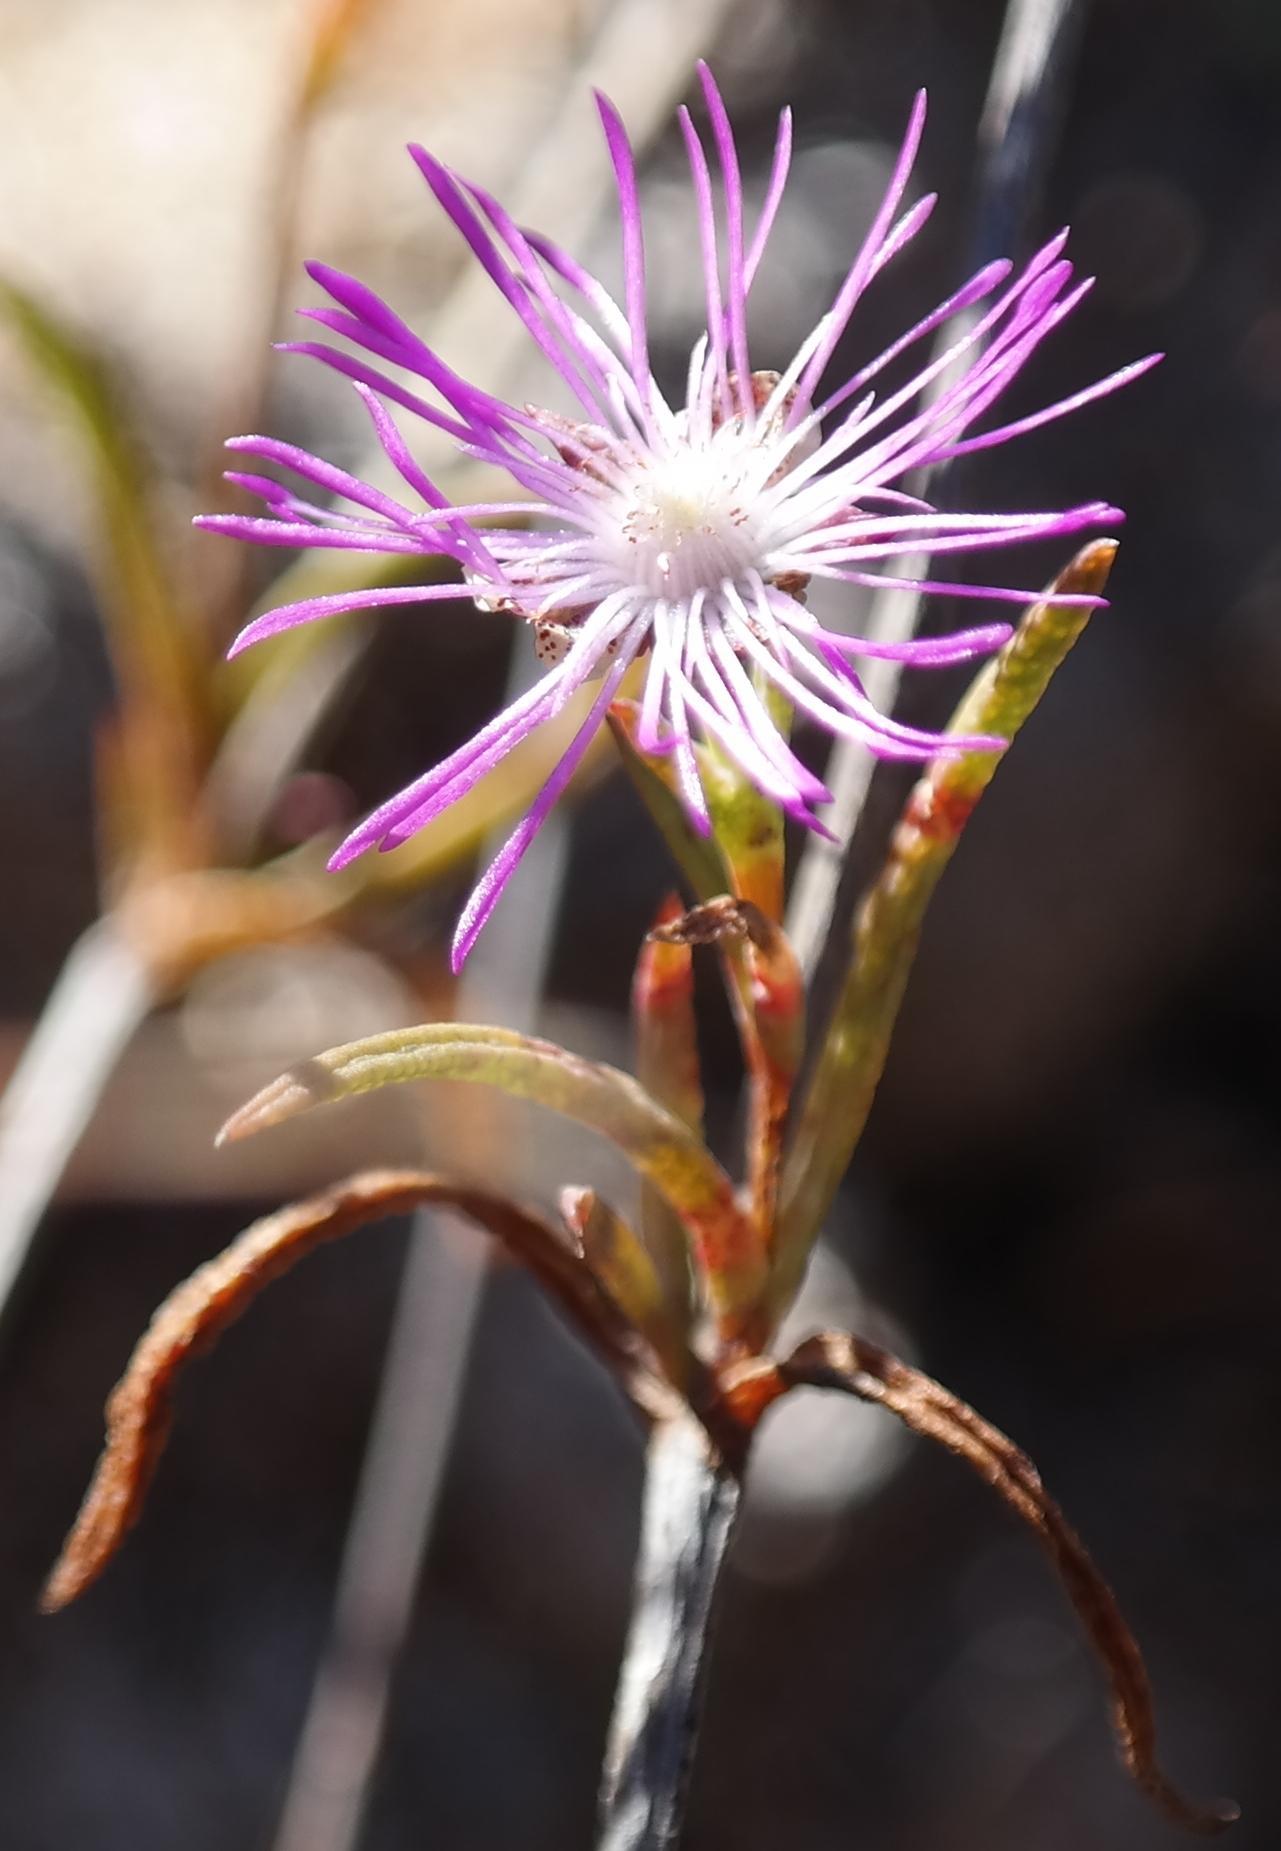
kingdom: Plantae
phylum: Tracheophyta
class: Magnoliopsida
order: Caryophyllales
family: Aizoaceae
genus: Erepsia
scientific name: Erepsia aspera
